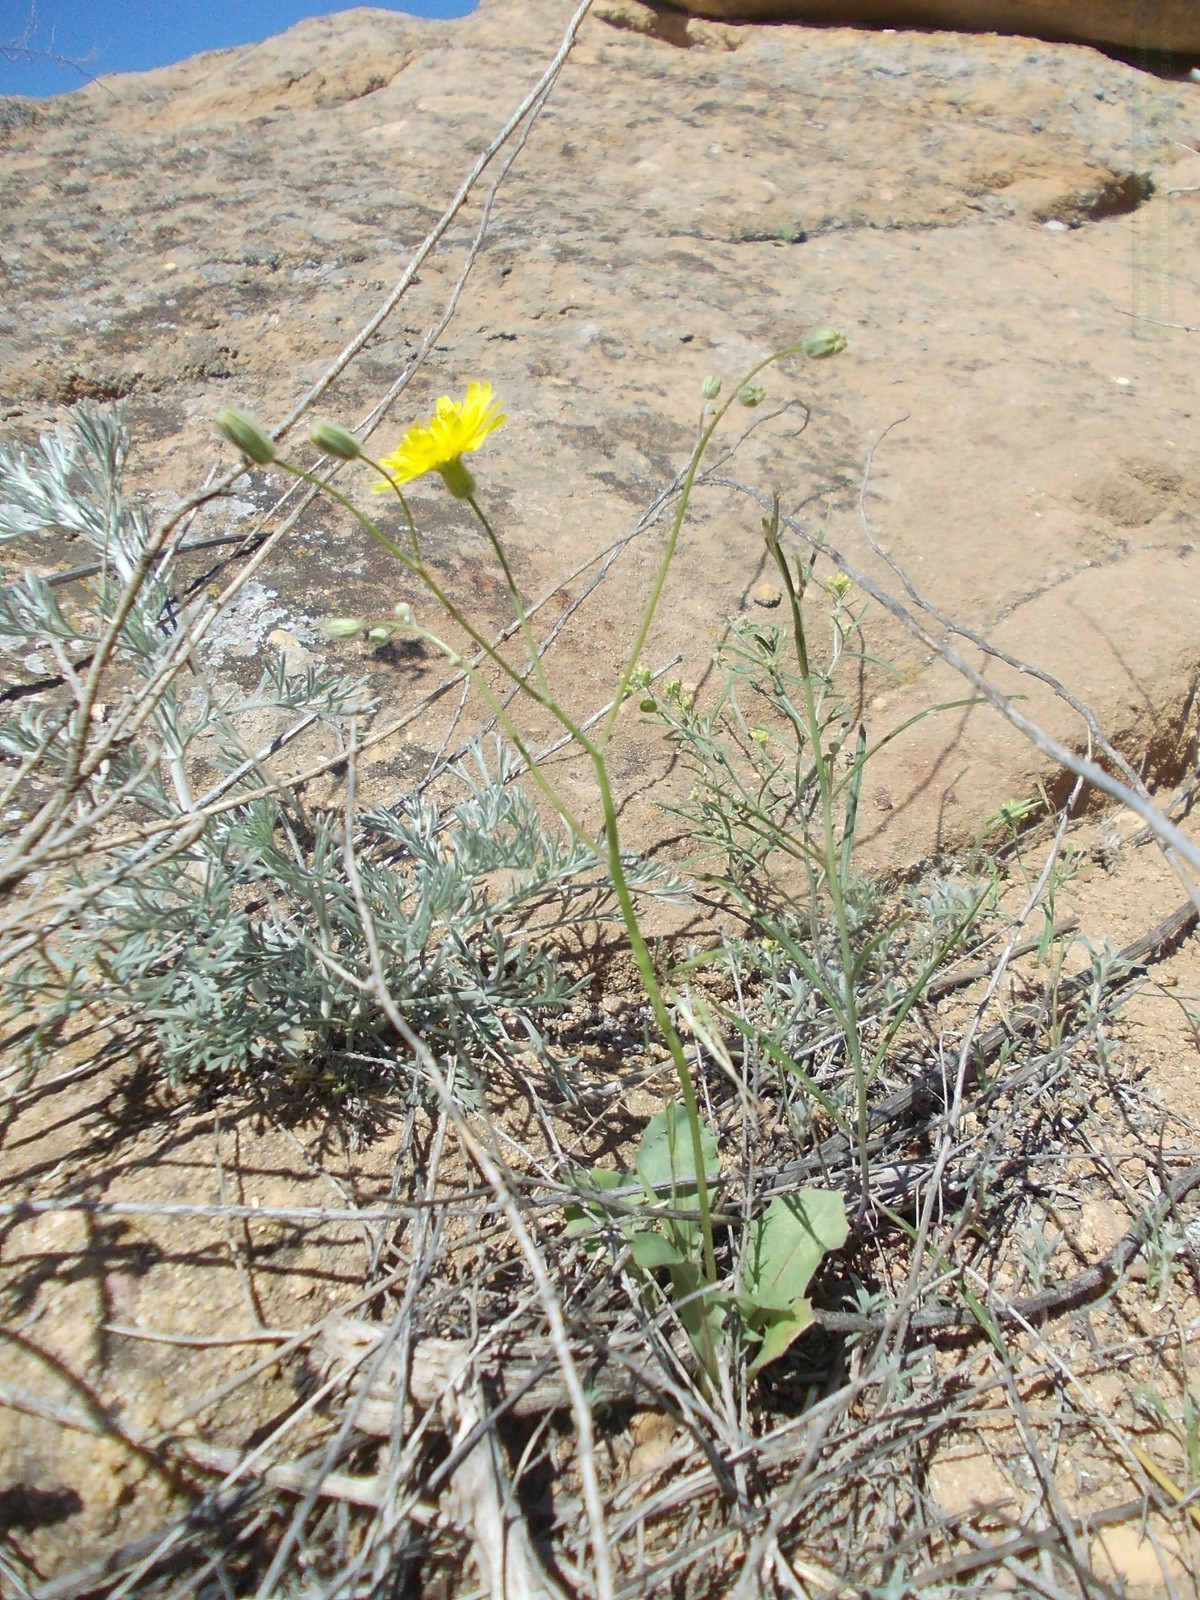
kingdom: Plantae
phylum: Tracheophyta
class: Magnoliopsida
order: Asterales
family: Asteraceae
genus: Crepis
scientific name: Crepis sancta
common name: Hawk's-beard
